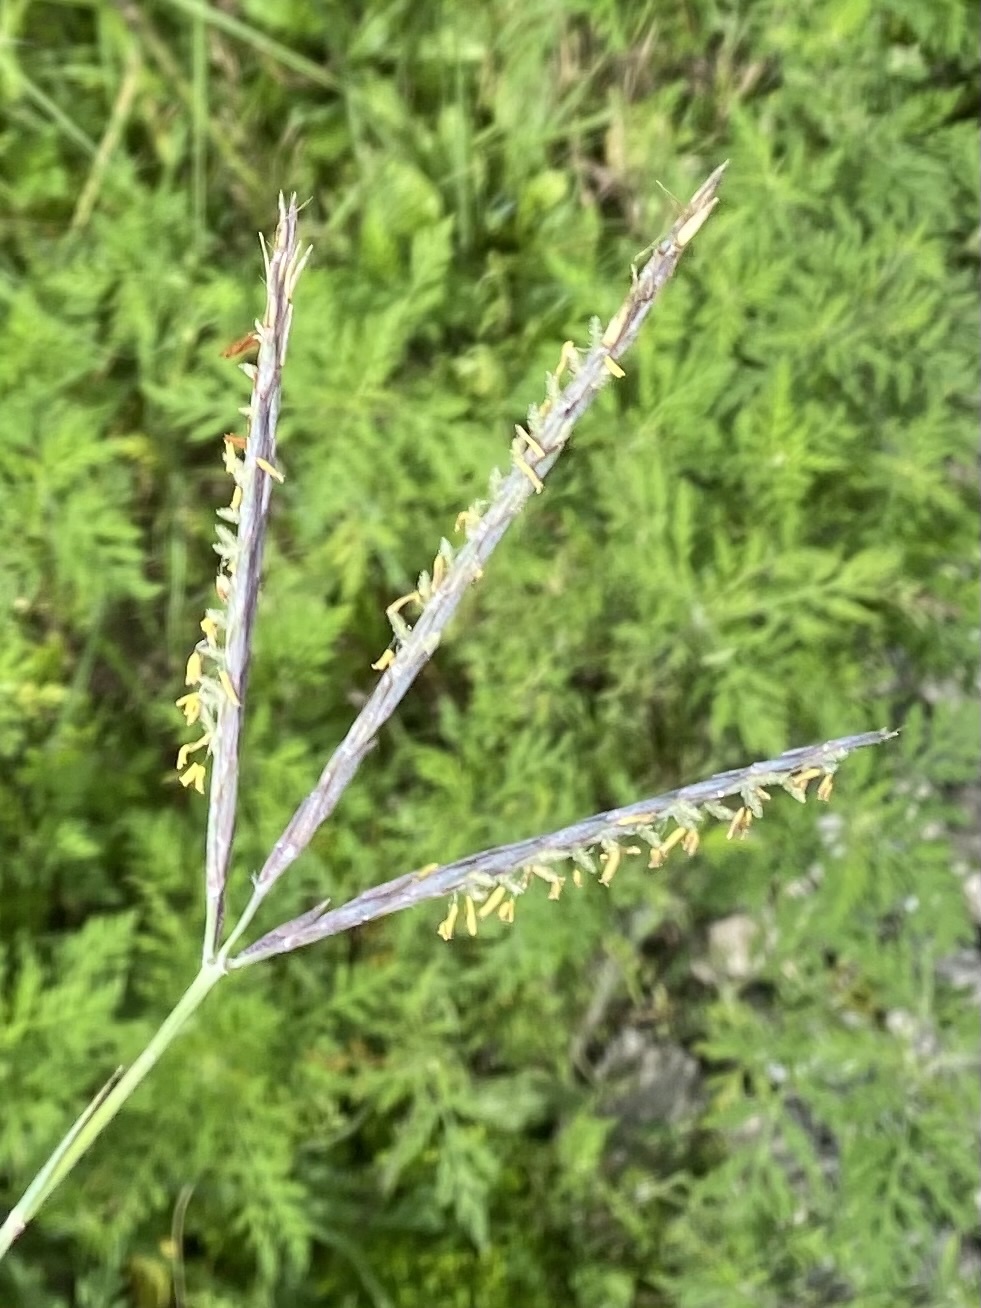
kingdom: Plantae
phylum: Tracheophyta
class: Liliopsida
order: Poales
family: Poaceae
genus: Andropogon
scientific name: Andropogon gerardi
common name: Big bluestem
